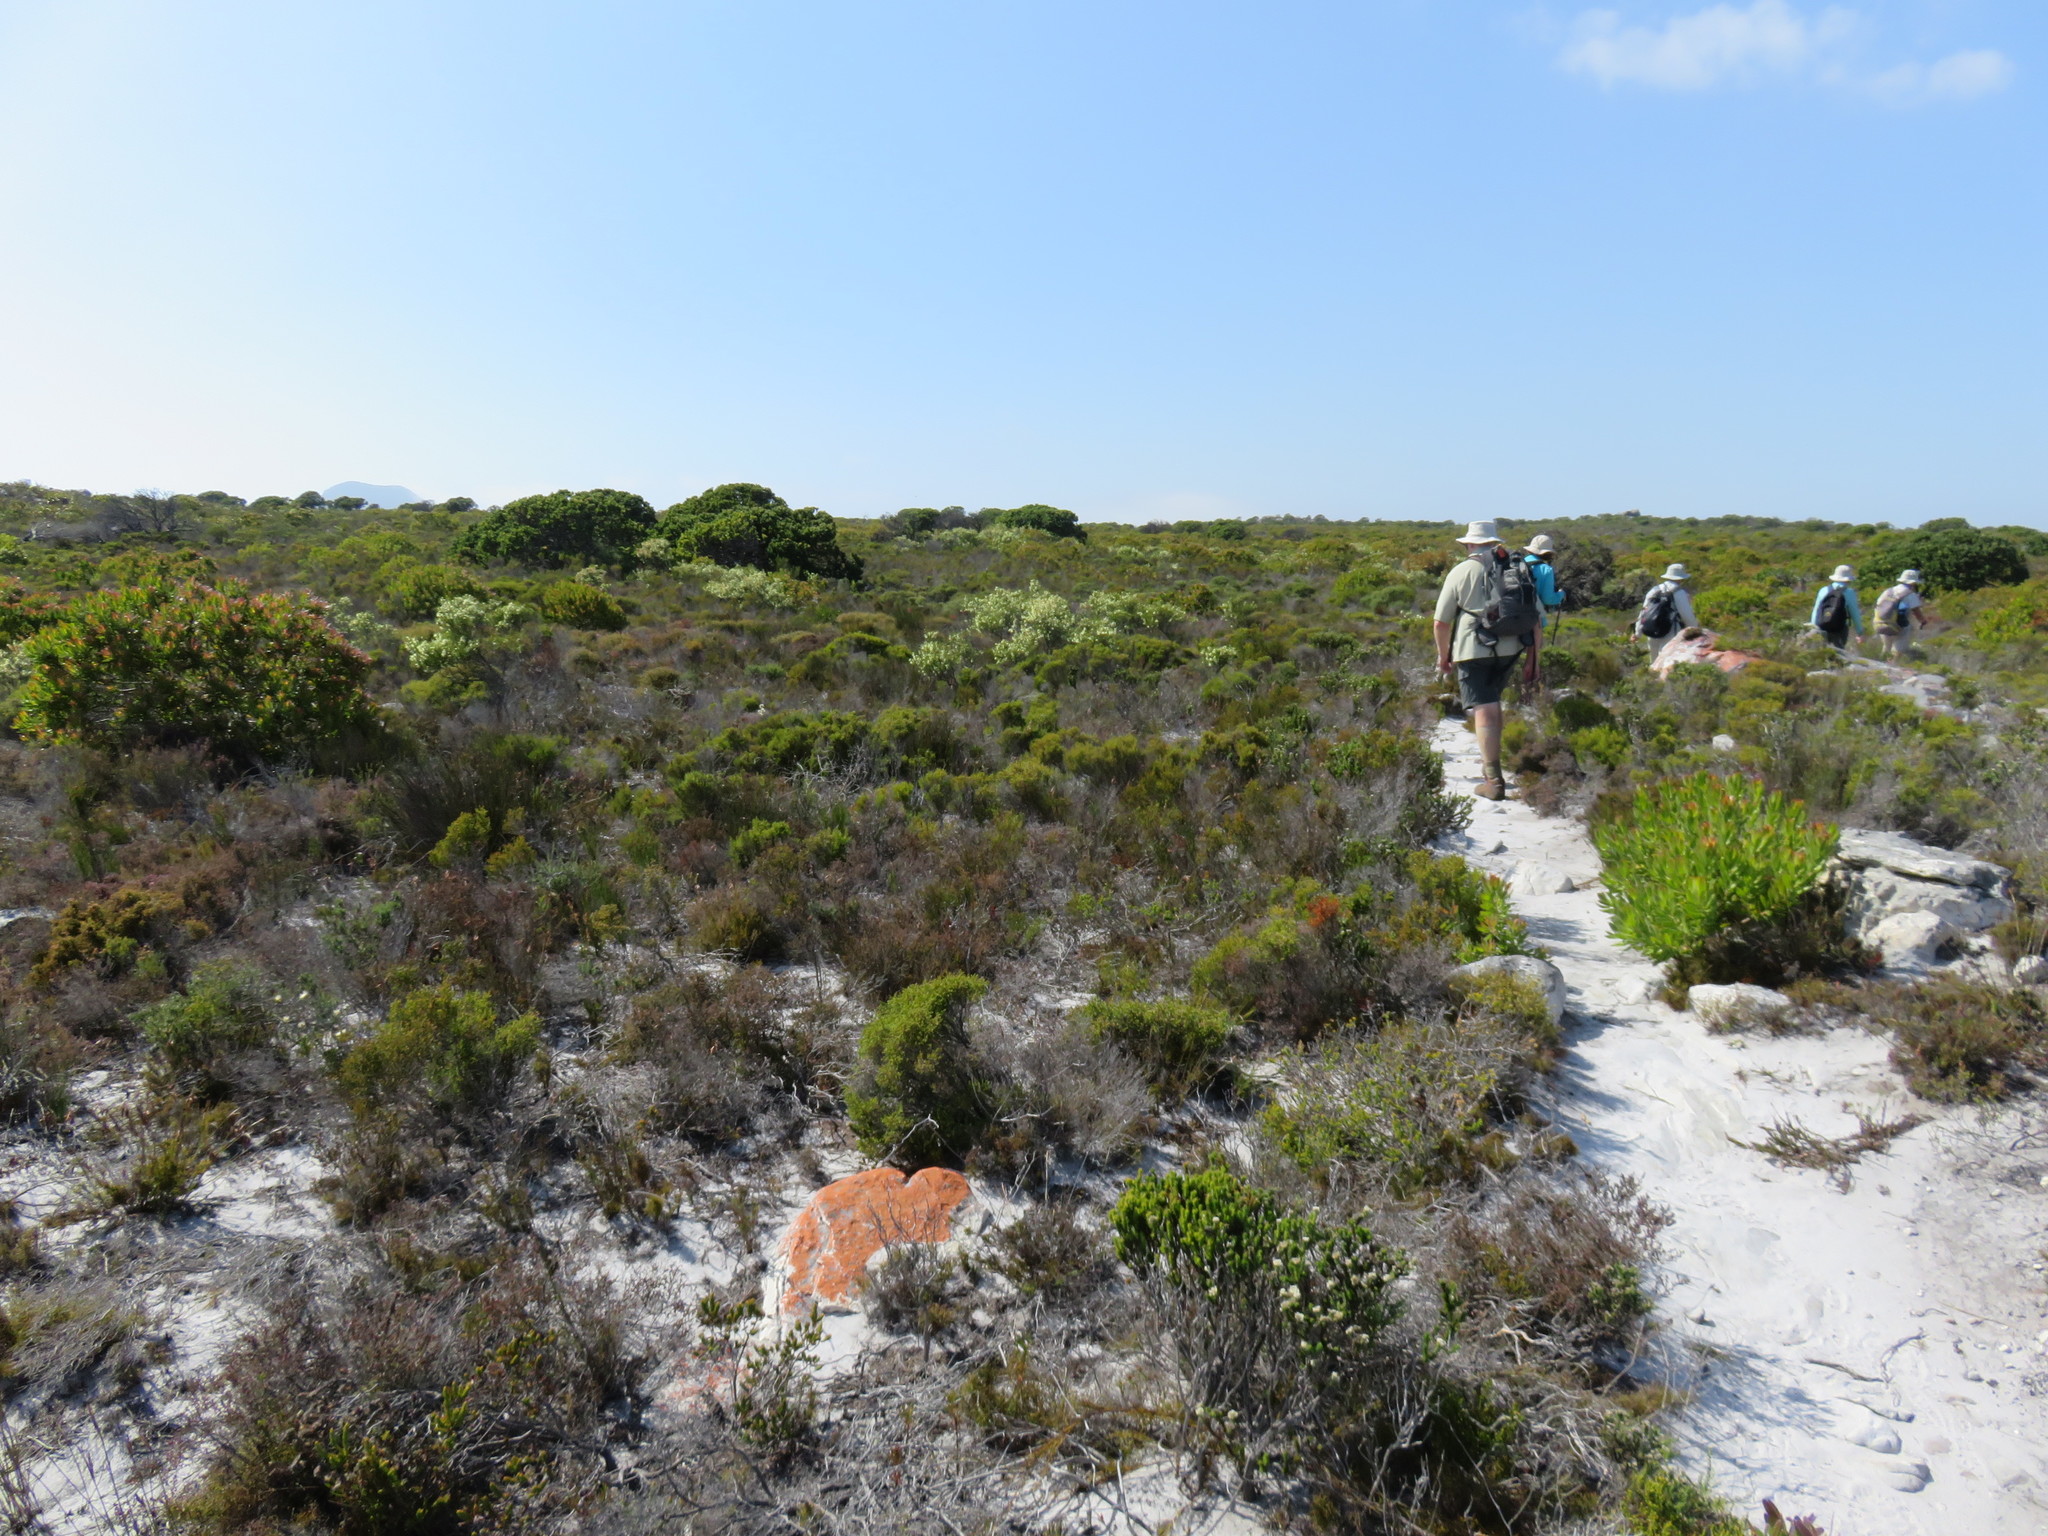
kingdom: Plantae
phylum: Tracheophyta
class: Magnoliopsida
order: Ericales
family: Ericaceae
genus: Erica
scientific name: Erica mammosa
